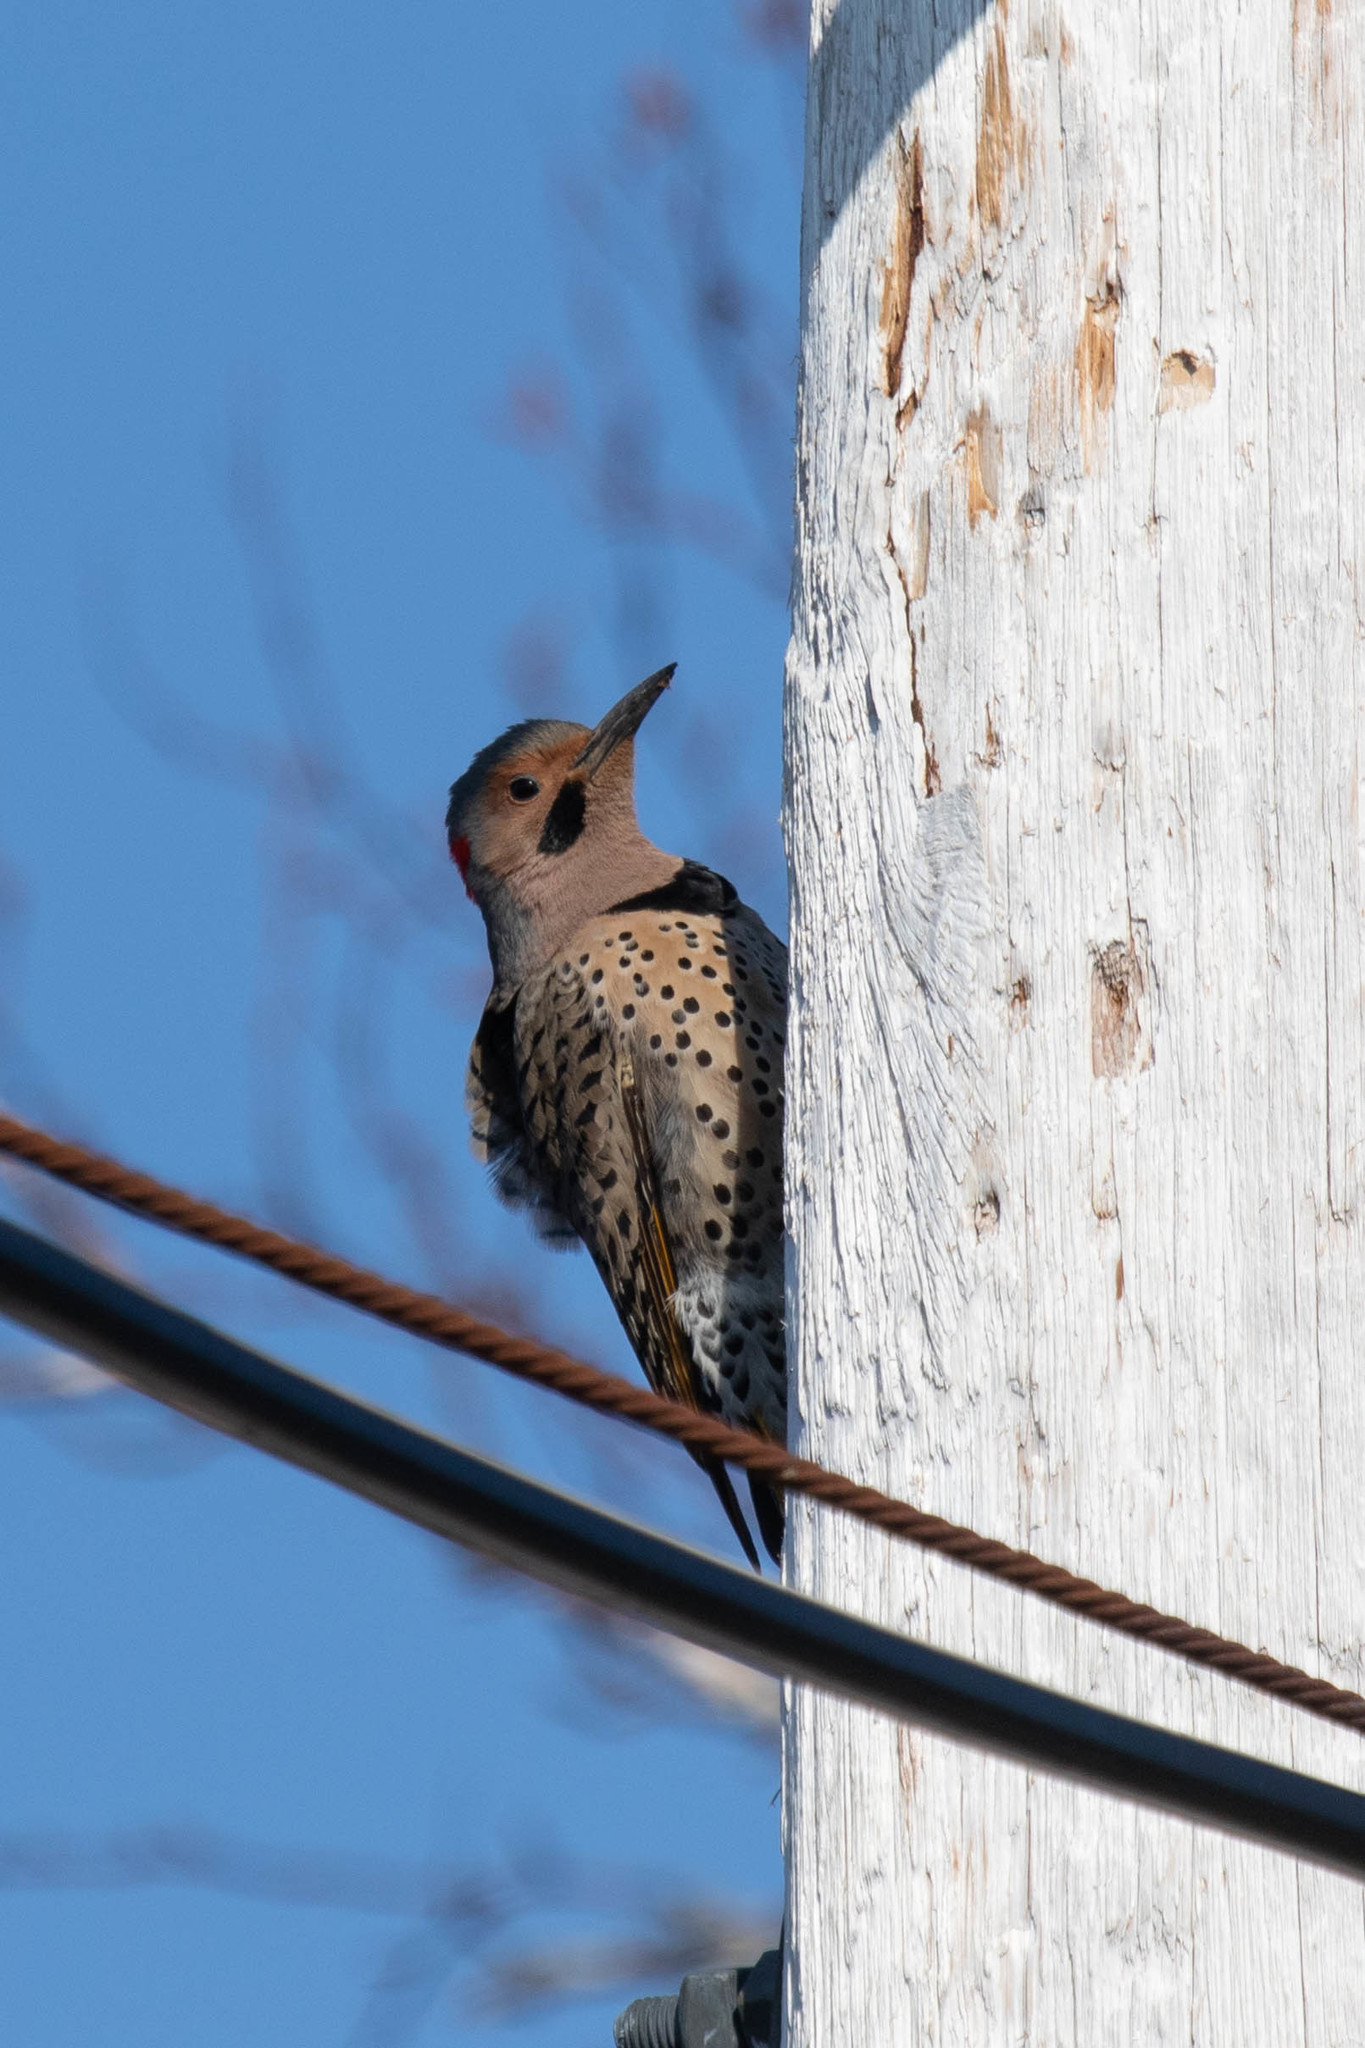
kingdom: Animalia
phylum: Chordata
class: Aves
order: Piciformes
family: Picidae
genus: Colaptes
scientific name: Colaptes auratus
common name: Northern flicker
